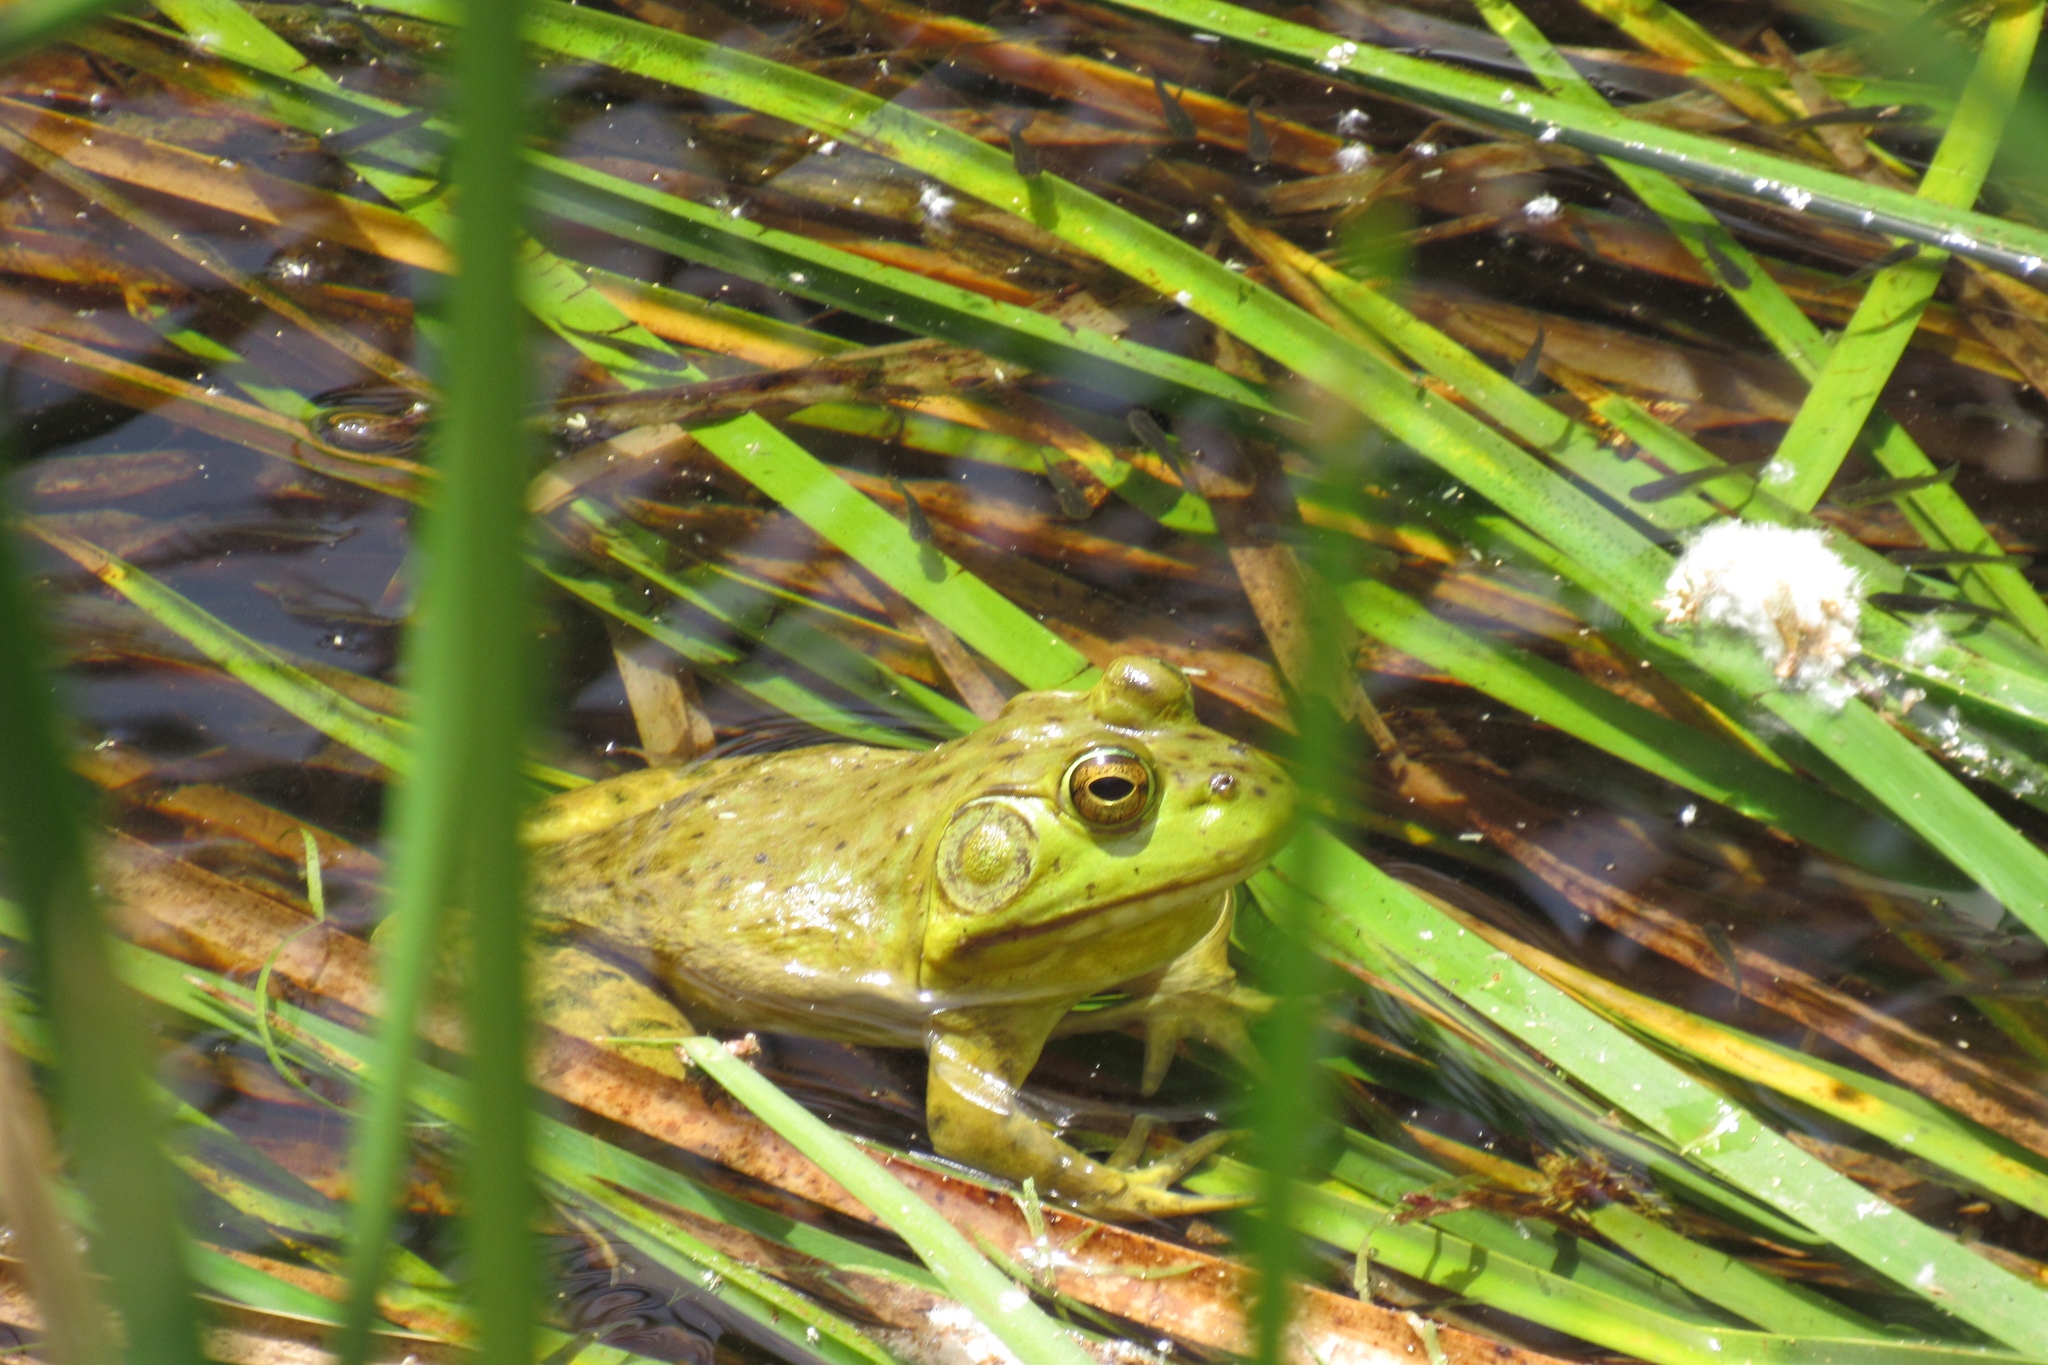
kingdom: Animalia
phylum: Chordata
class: Amphibia
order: Anura
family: Ranidae
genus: Lithobates
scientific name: Lithobates catesbeianus
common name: American bullfrog
